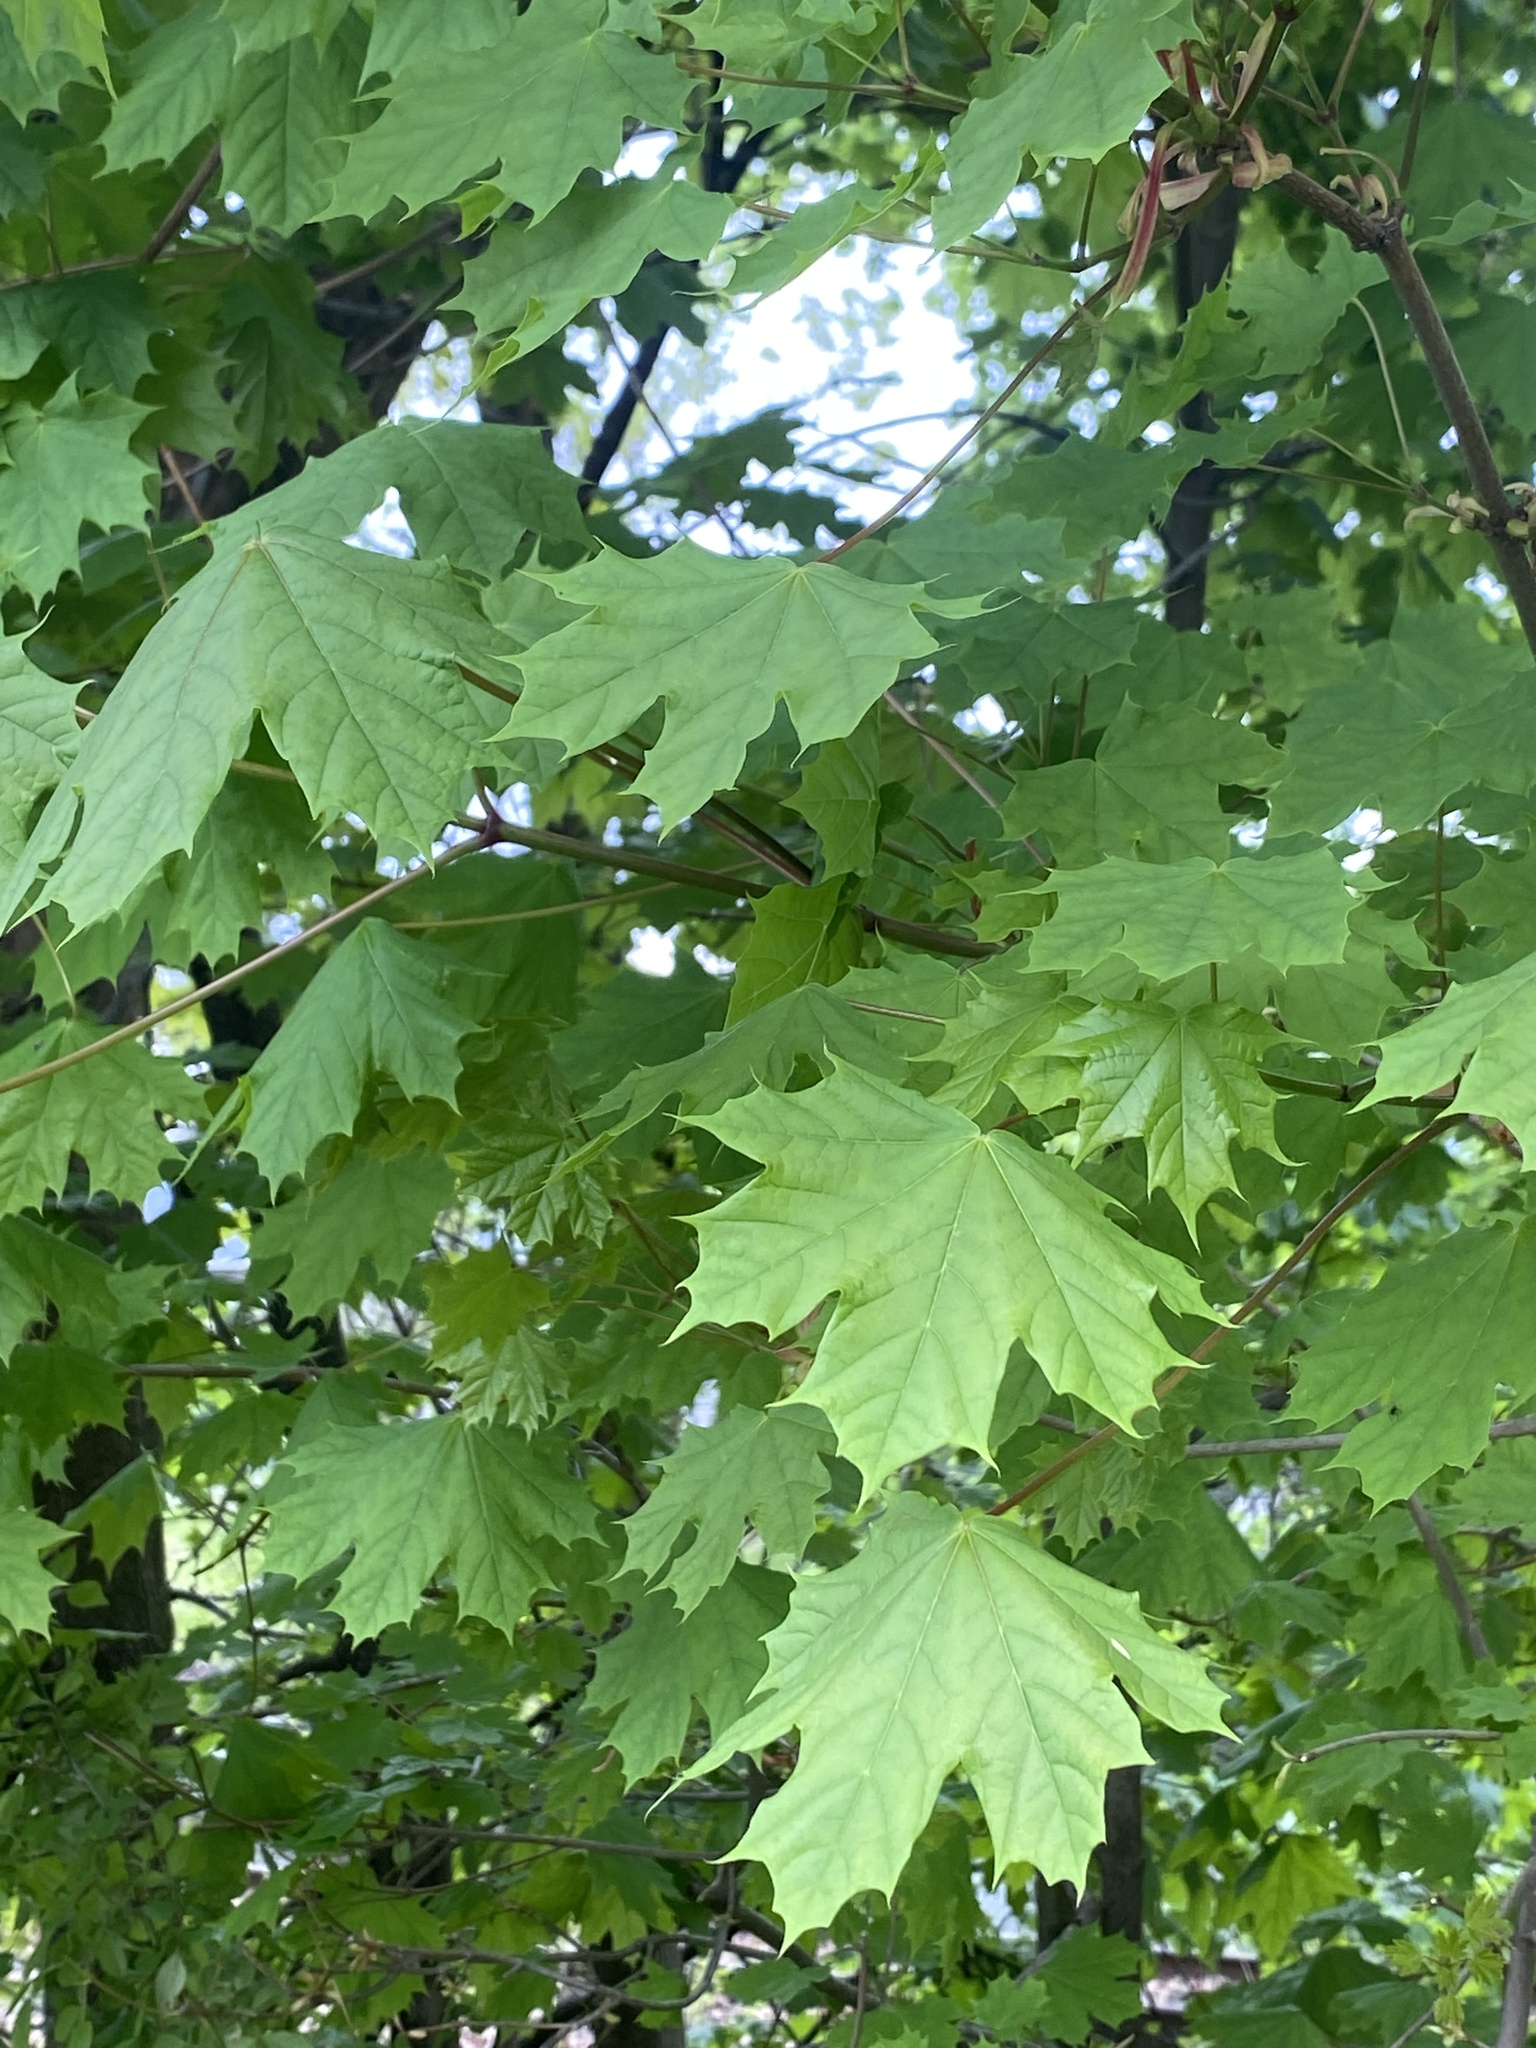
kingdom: Plantae
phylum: Tracheophyta
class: Magnoliopsida
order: Sapindales
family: Sapindaceae
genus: Acer
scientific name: Acer platanoides
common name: Norway maple
